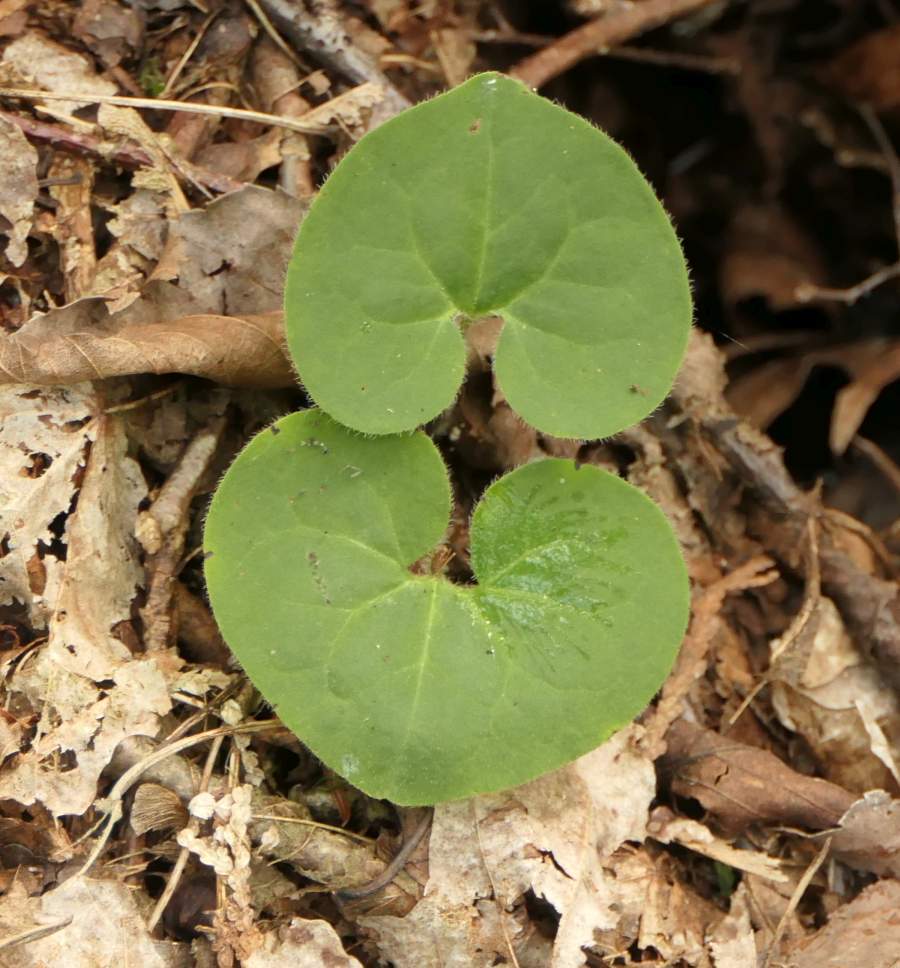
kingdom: Plantae
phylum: Tracheophyta
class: Magnoliopsida
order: Piperales
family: Aristolochiaceae
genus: Asarum
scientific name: Asarum canadense
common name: Wild ginger
